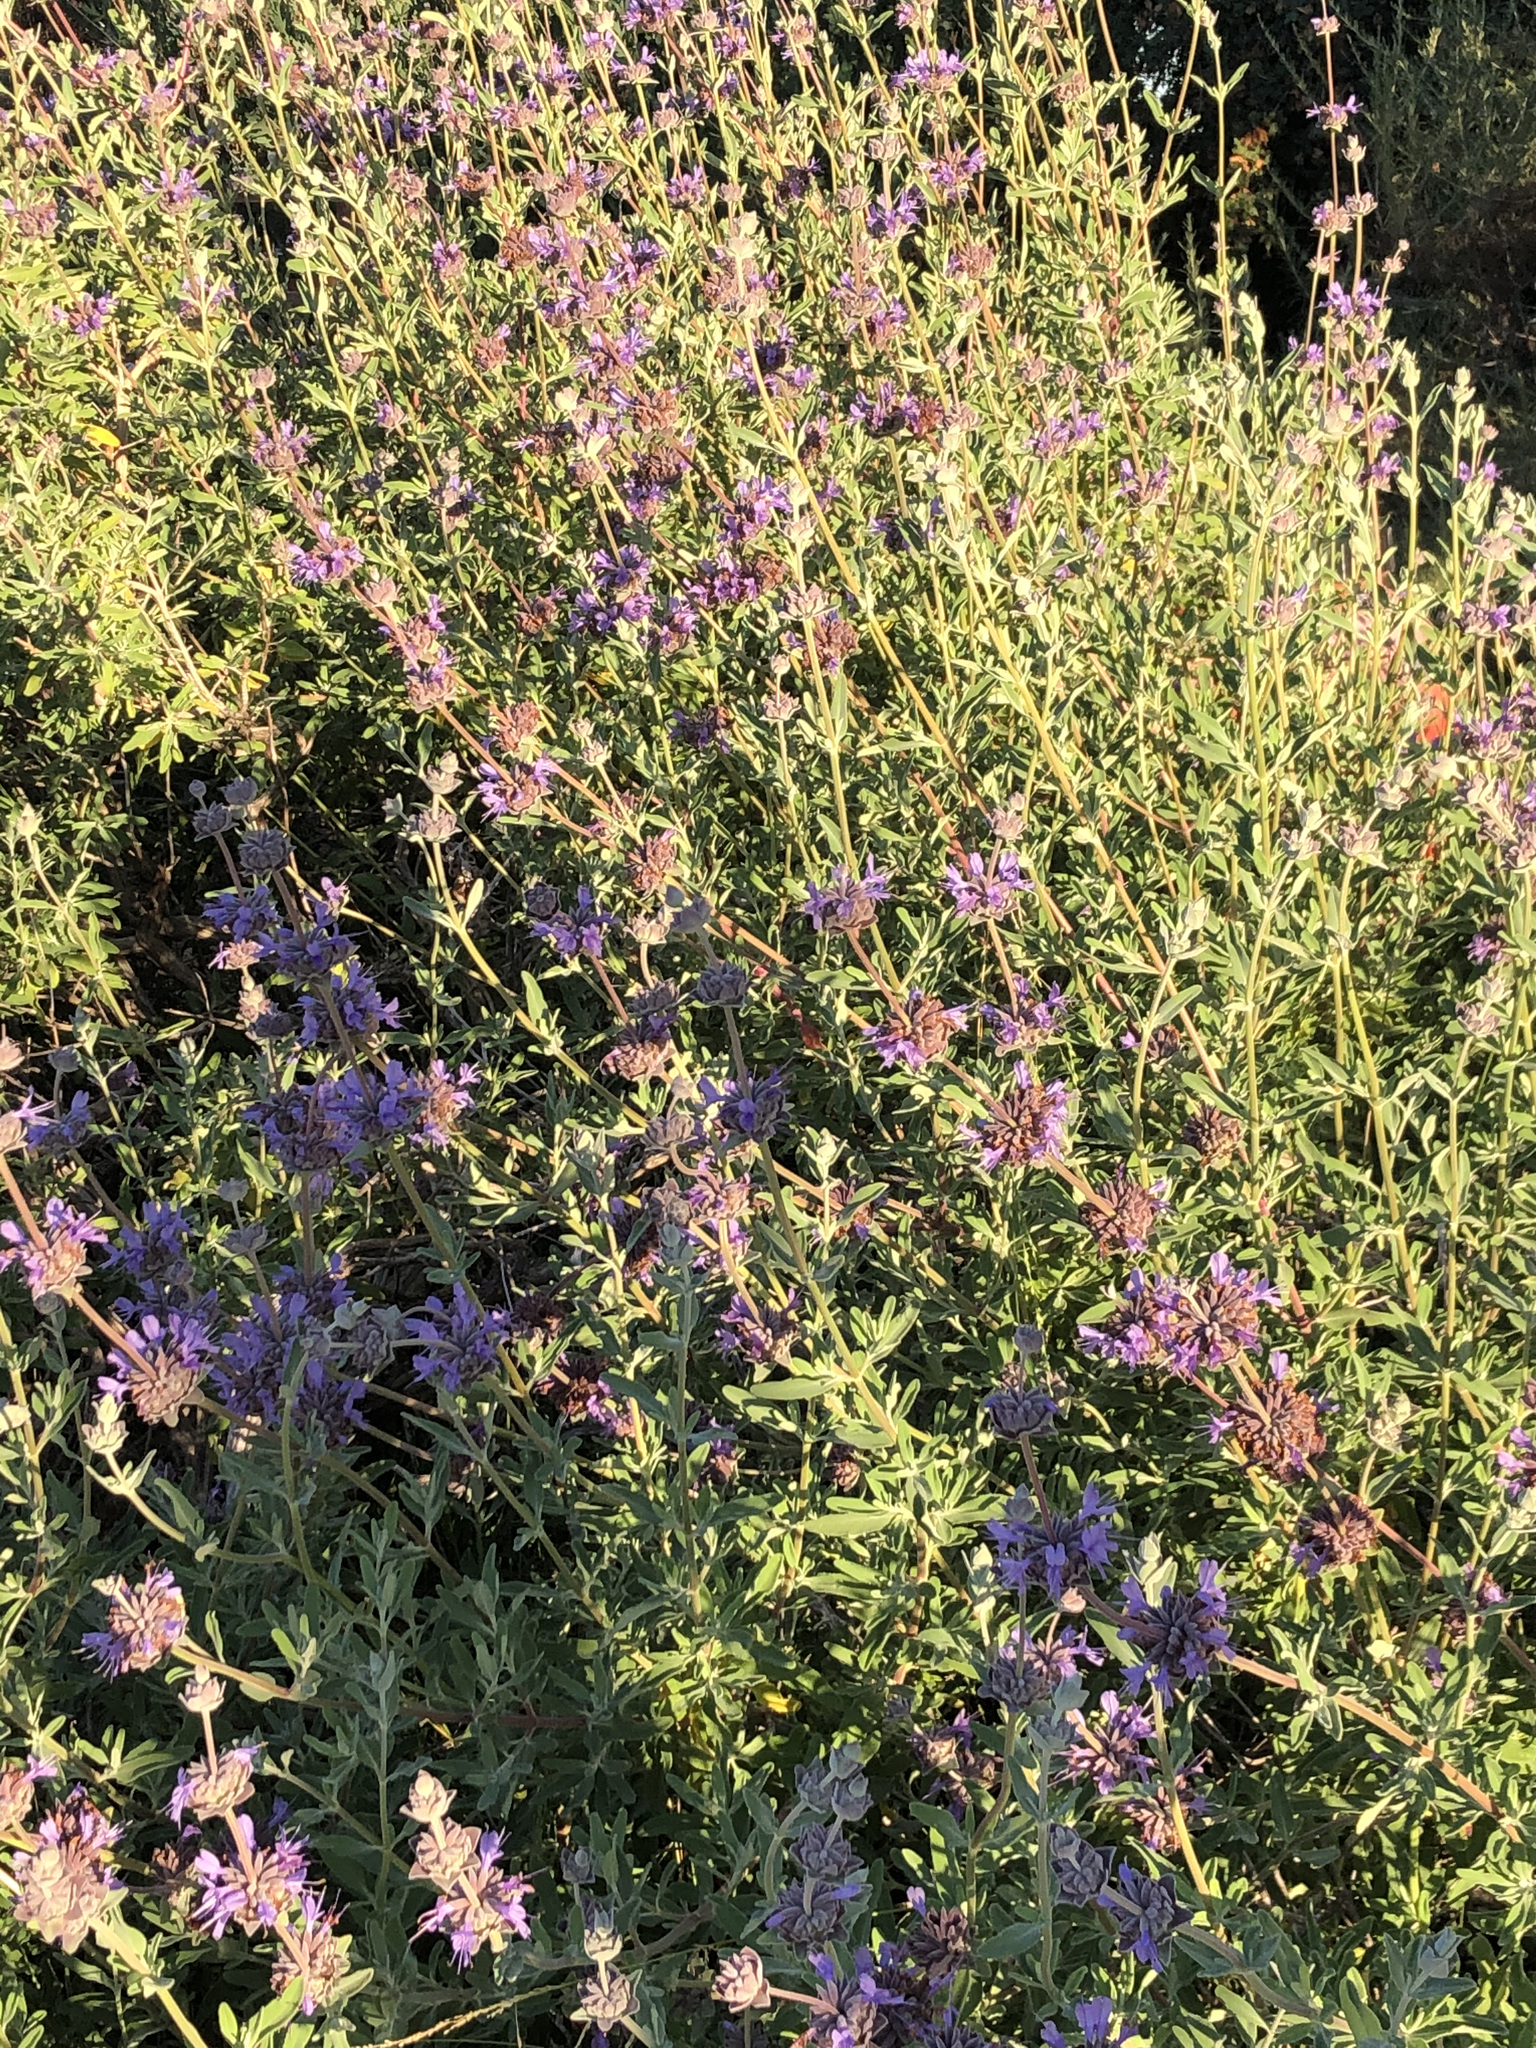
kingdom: Plantae
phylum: Tracheophyta
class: Magnoliopsida
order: Lamiales
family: Lamiaceae
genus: Salvia
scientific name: Salvia clevelandii
